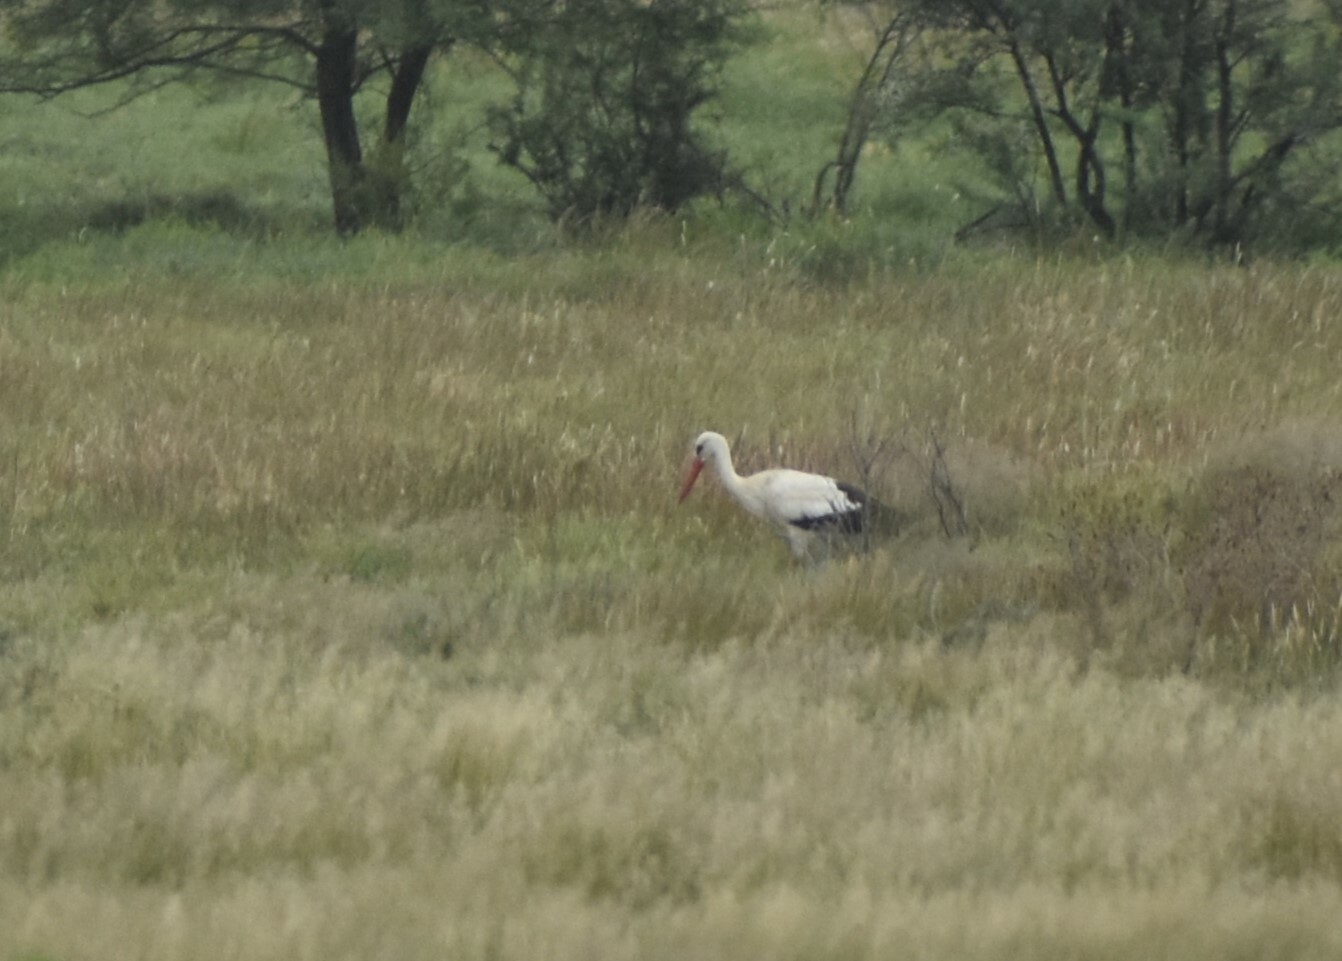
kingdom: Animalia
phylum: Chordata
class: Aves
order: Ciconiiformes
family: Ciconiidae
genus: Ciconia
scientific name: Ciconia ciconia
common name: White stork
